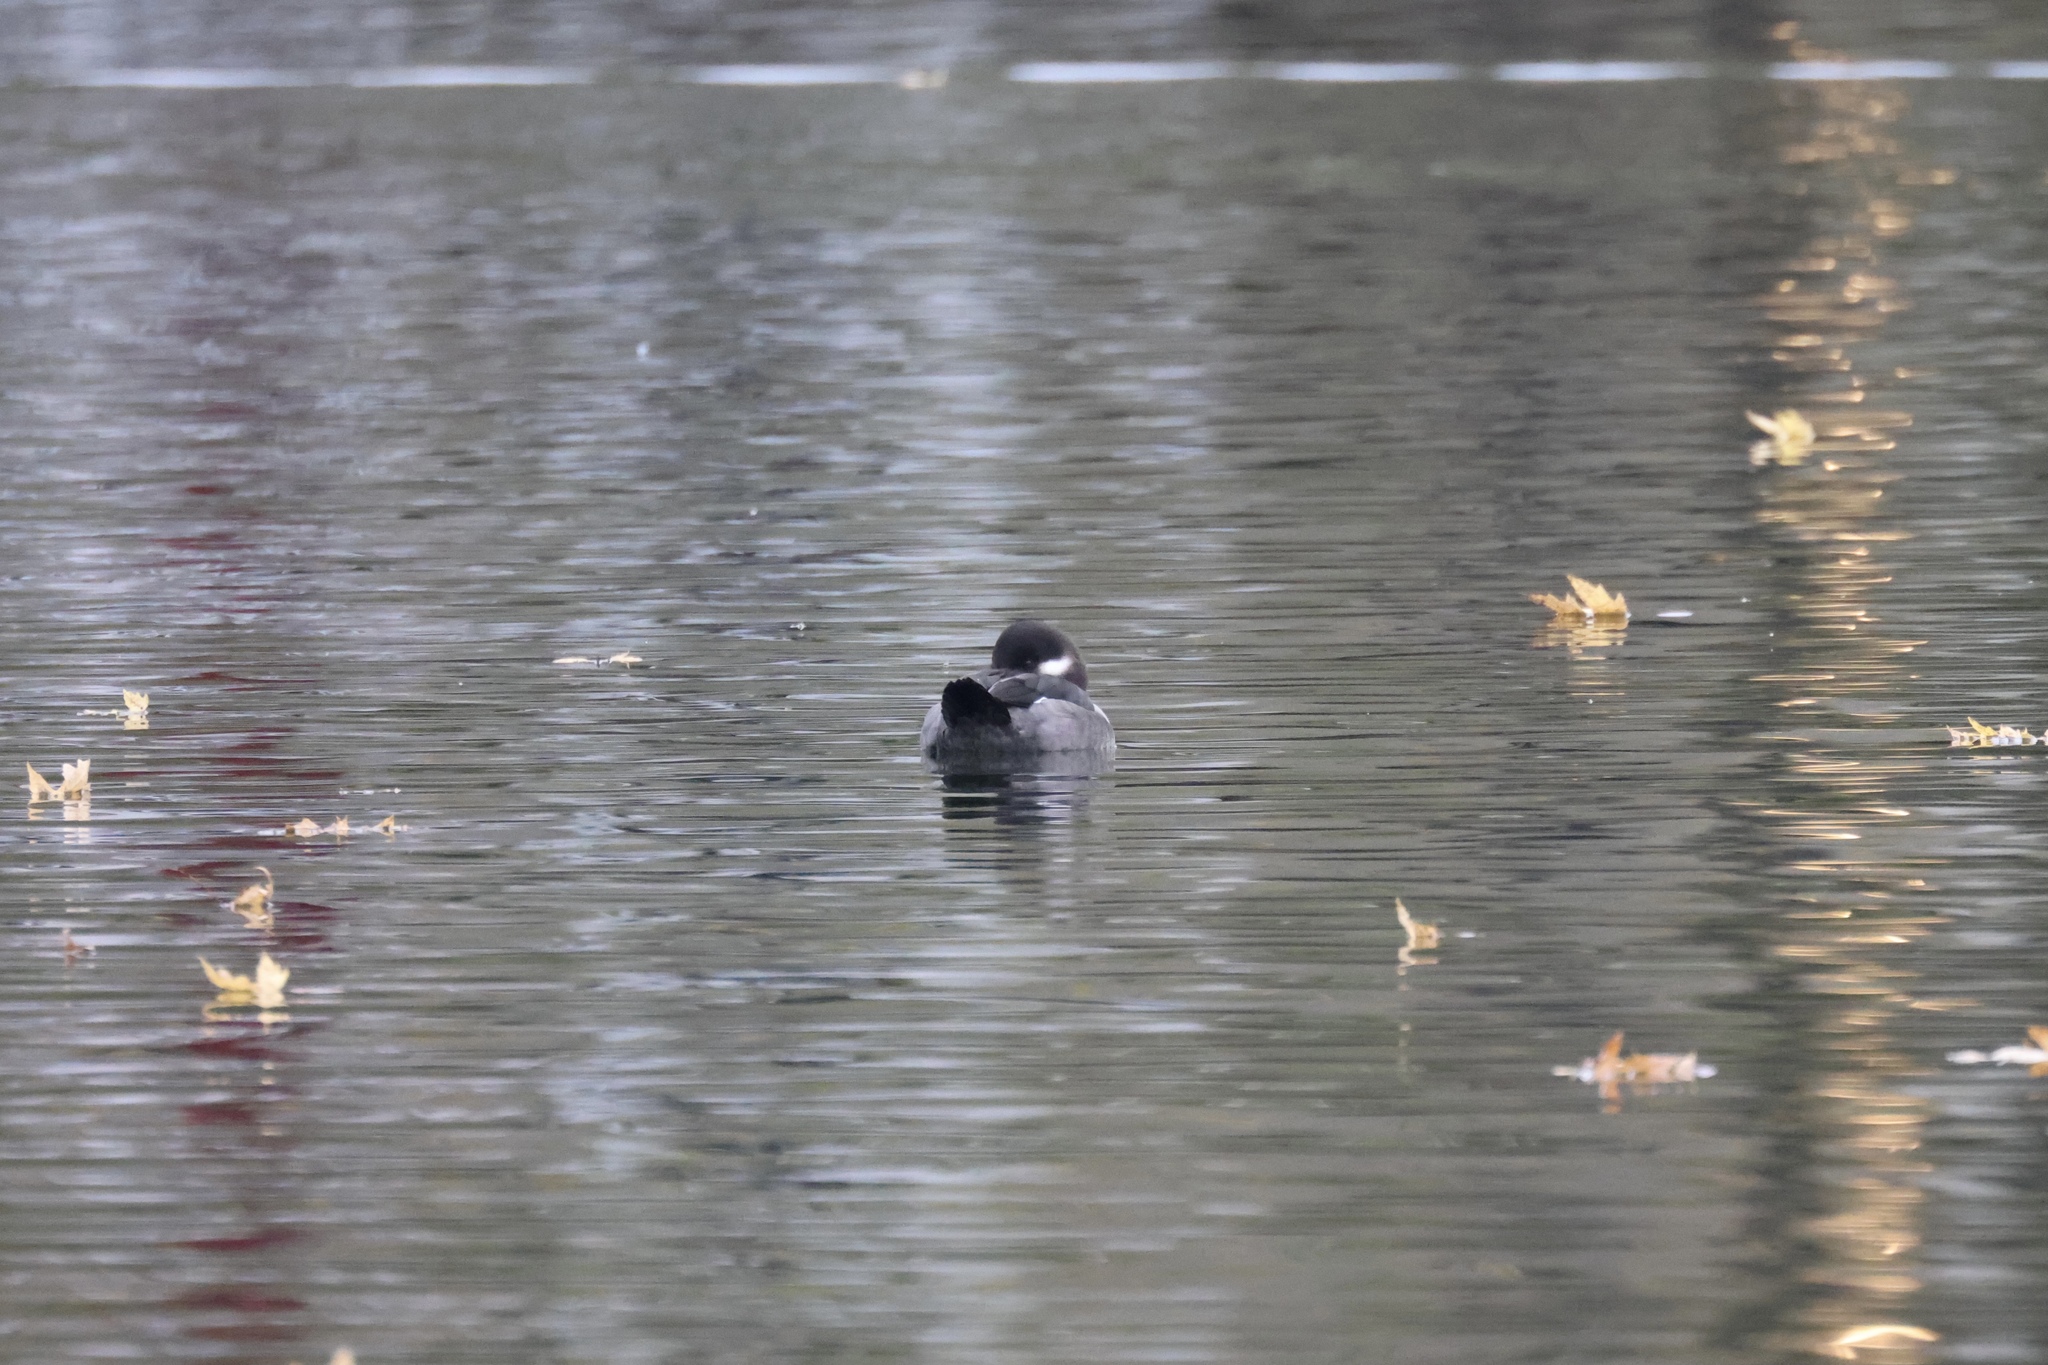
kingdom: Animalia
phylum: Chordata
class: Aves
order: Anseriformes
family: Anatidae
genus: Bucephala
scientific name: Bucephala albeola
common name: Bufflehead
